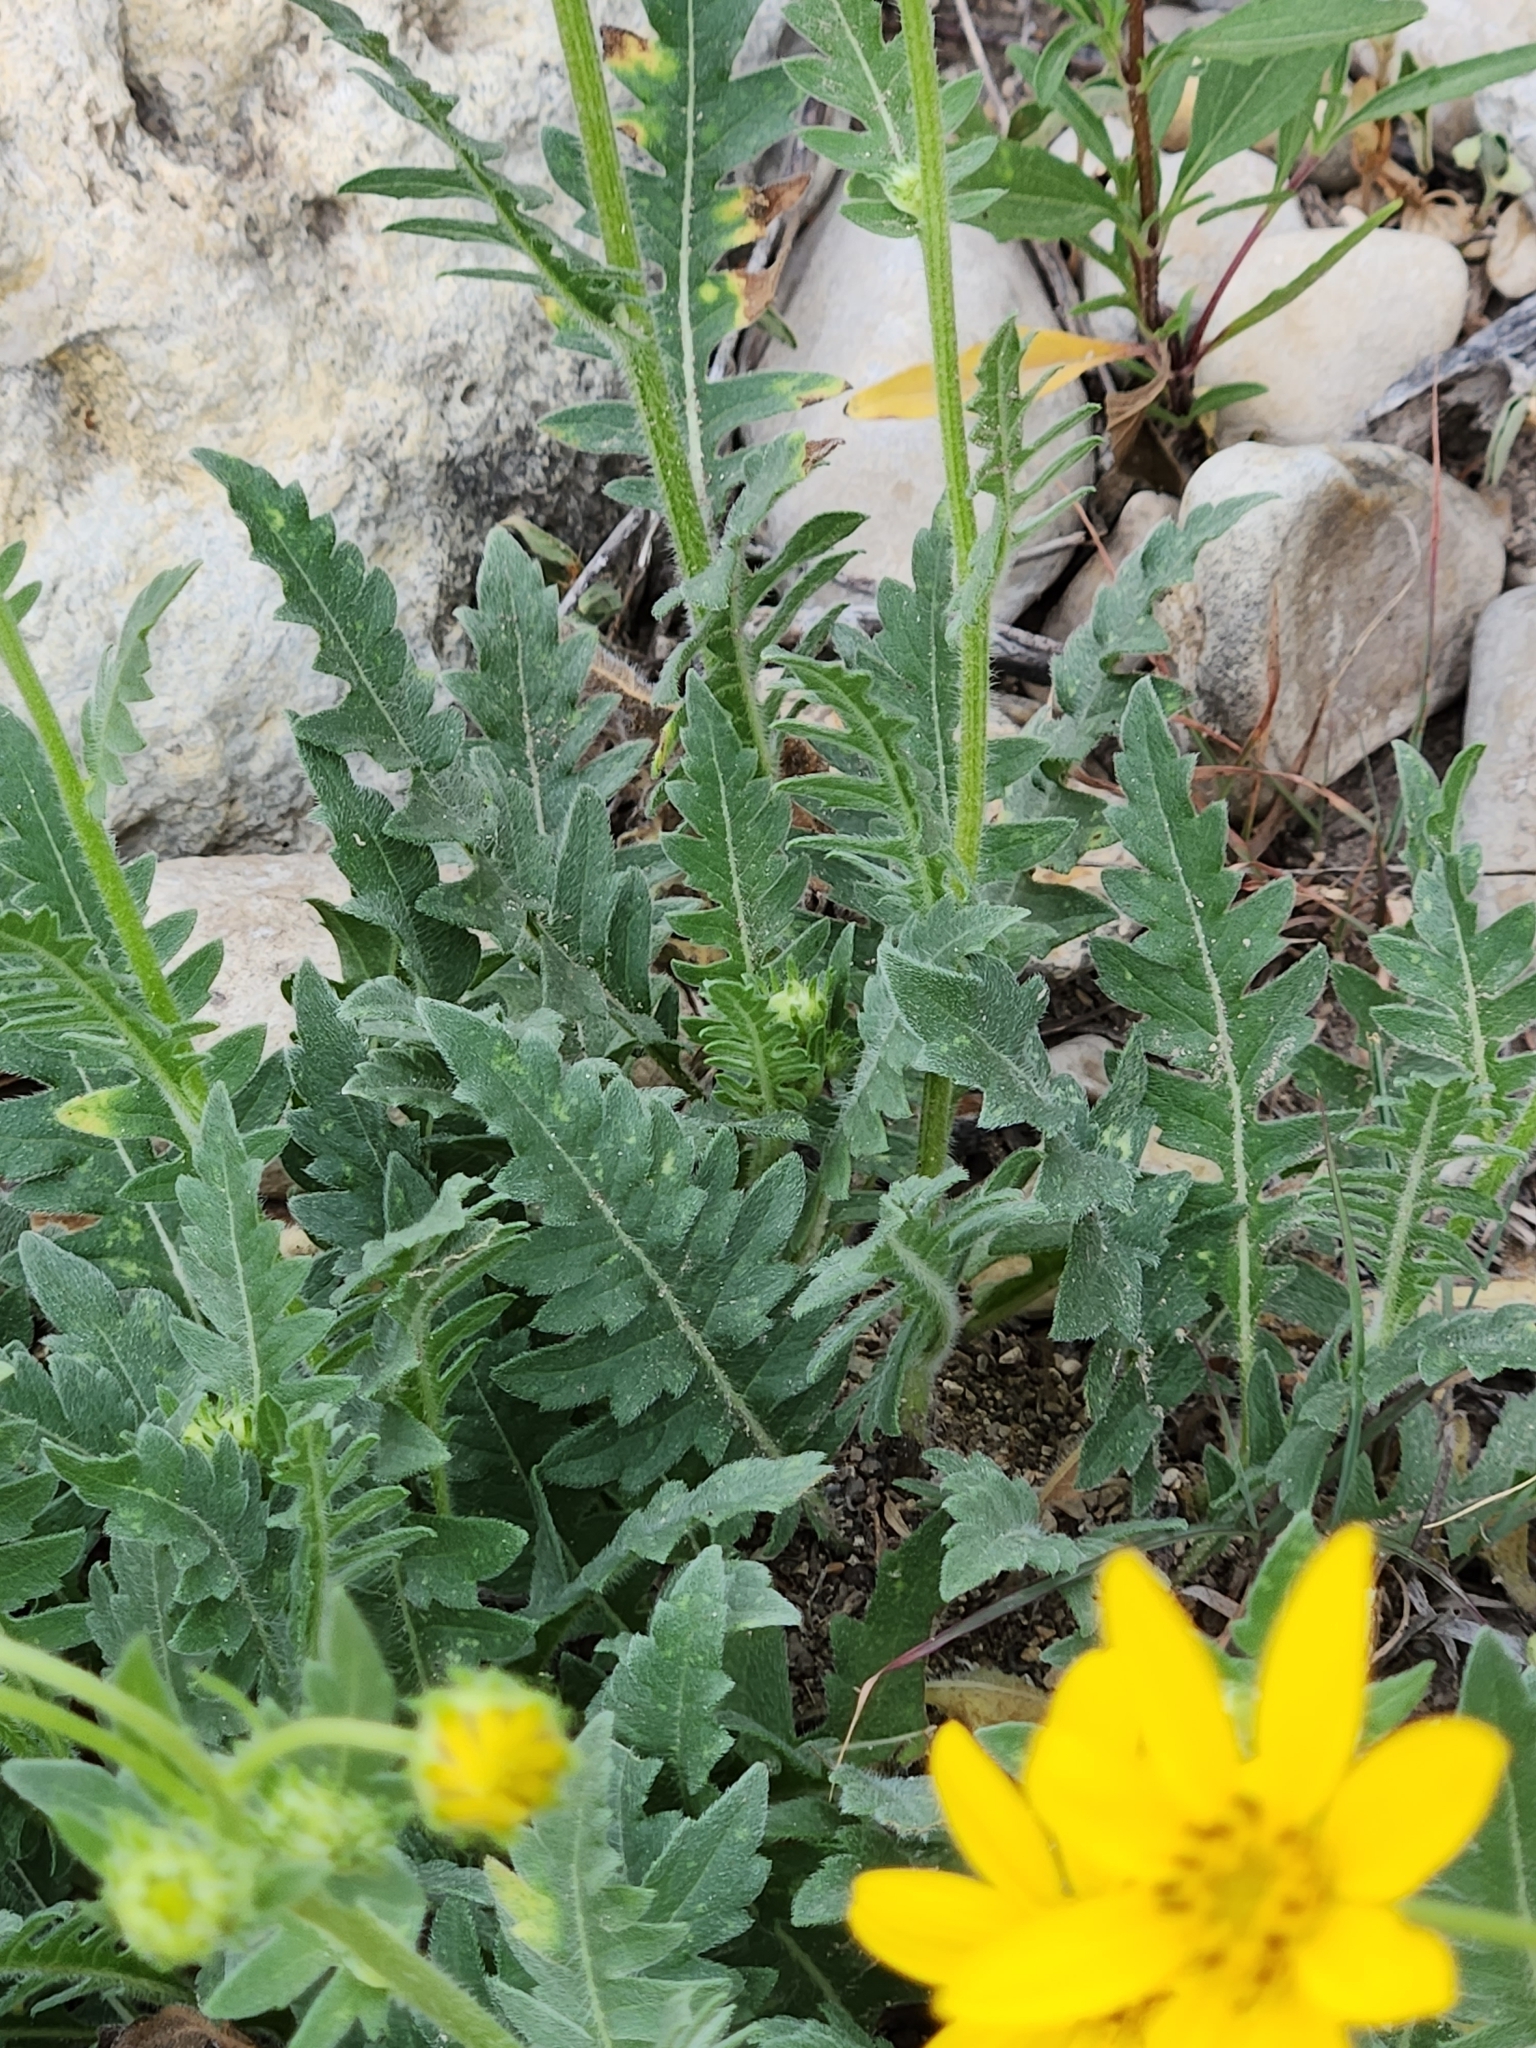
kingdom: Plantae
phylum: Tracheophyta
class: Magnoliopsida
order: Asterales
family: Asteraceae
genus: Engelmannia
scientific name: Engelmannia peristenia
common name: Engelmann's daisy
